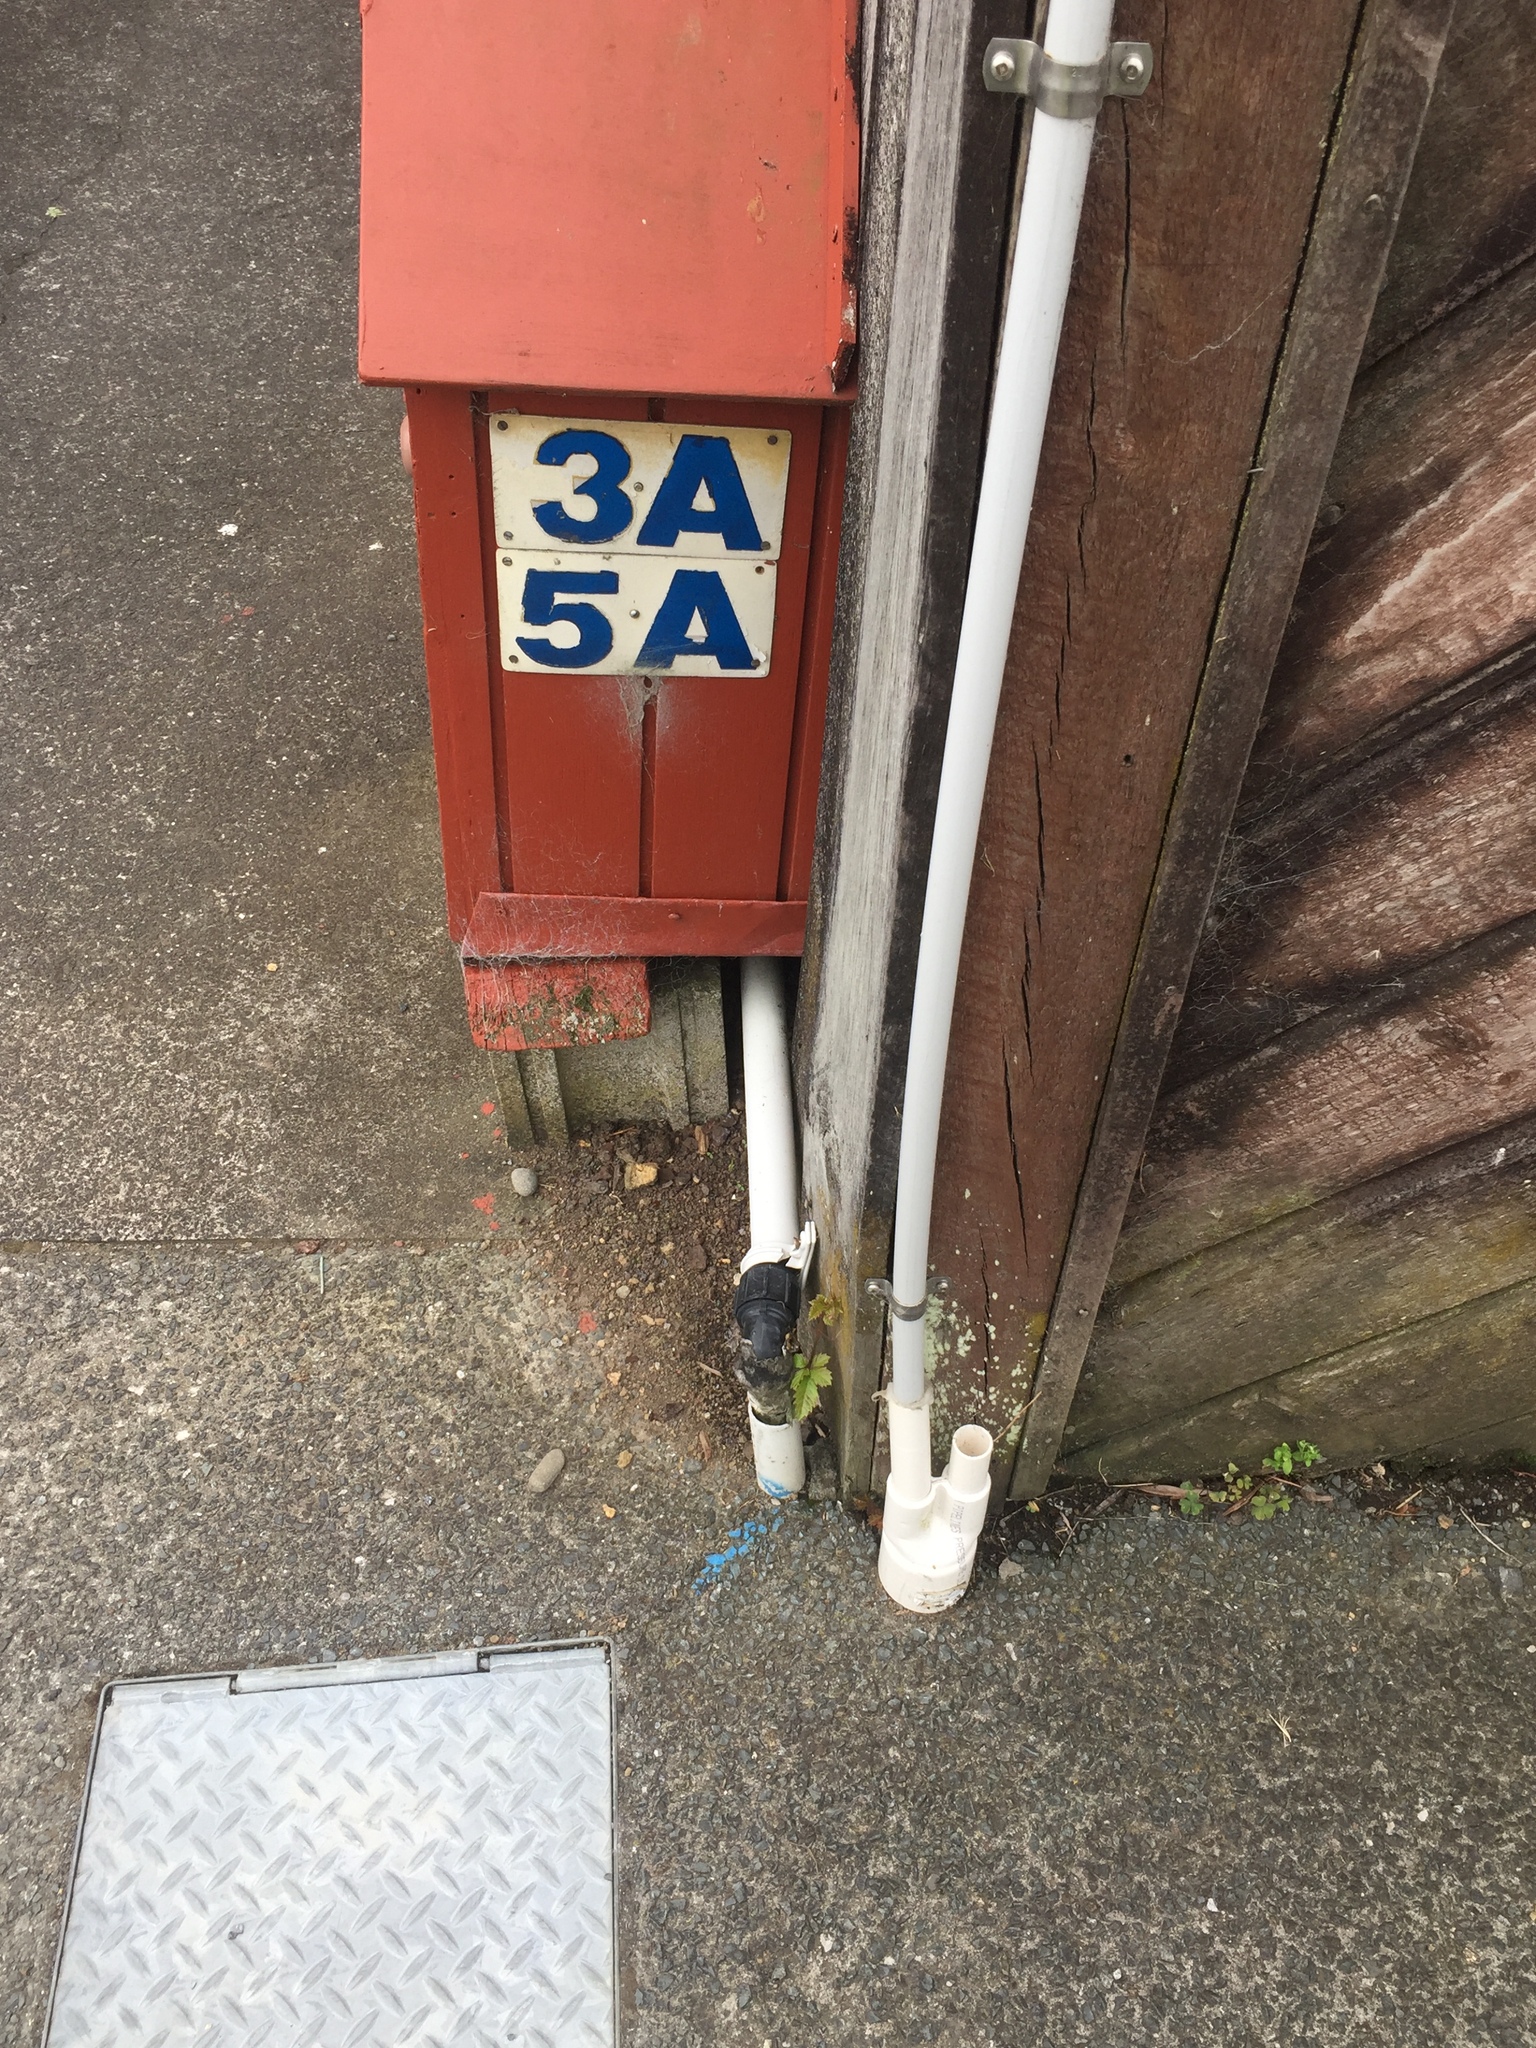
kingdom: Plantae
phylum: Tracheophyta
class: Magnoliopsida
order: Vitales
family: Vitaceae
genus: Causonis
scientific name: Causonis japonica
